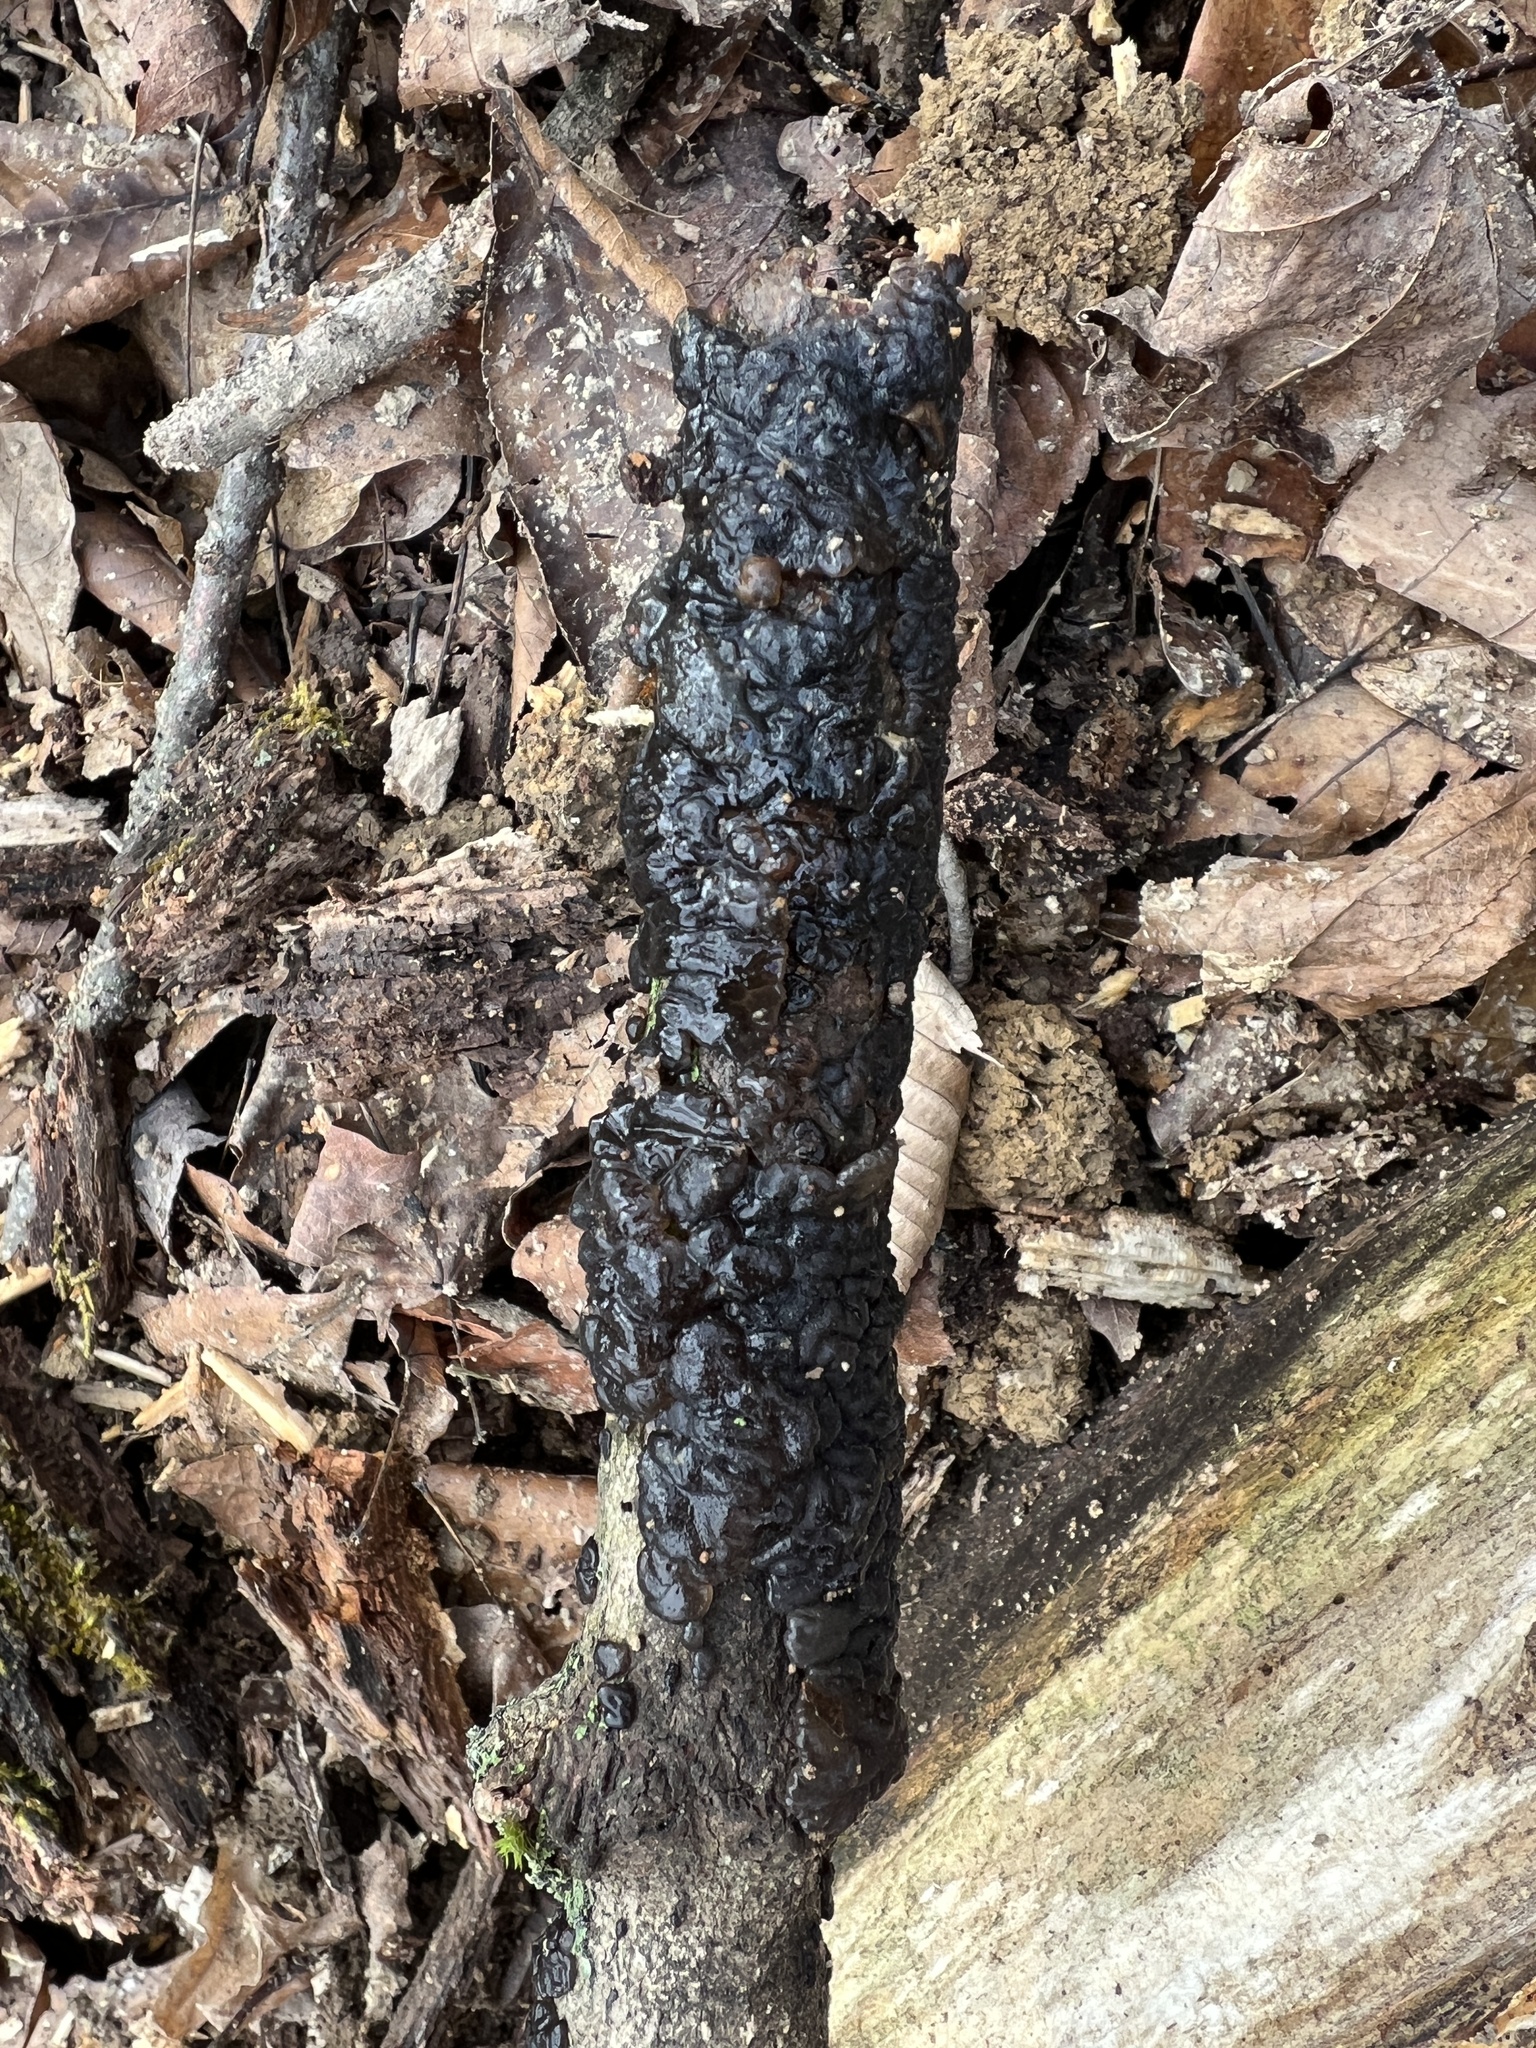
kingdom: Fungi
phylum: Basidiomycota
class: Agaricomycetes
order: Auriculariales
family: Auriculariaceae
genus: Exidia
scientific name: Exidia glandulosa
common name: Witches' butter
